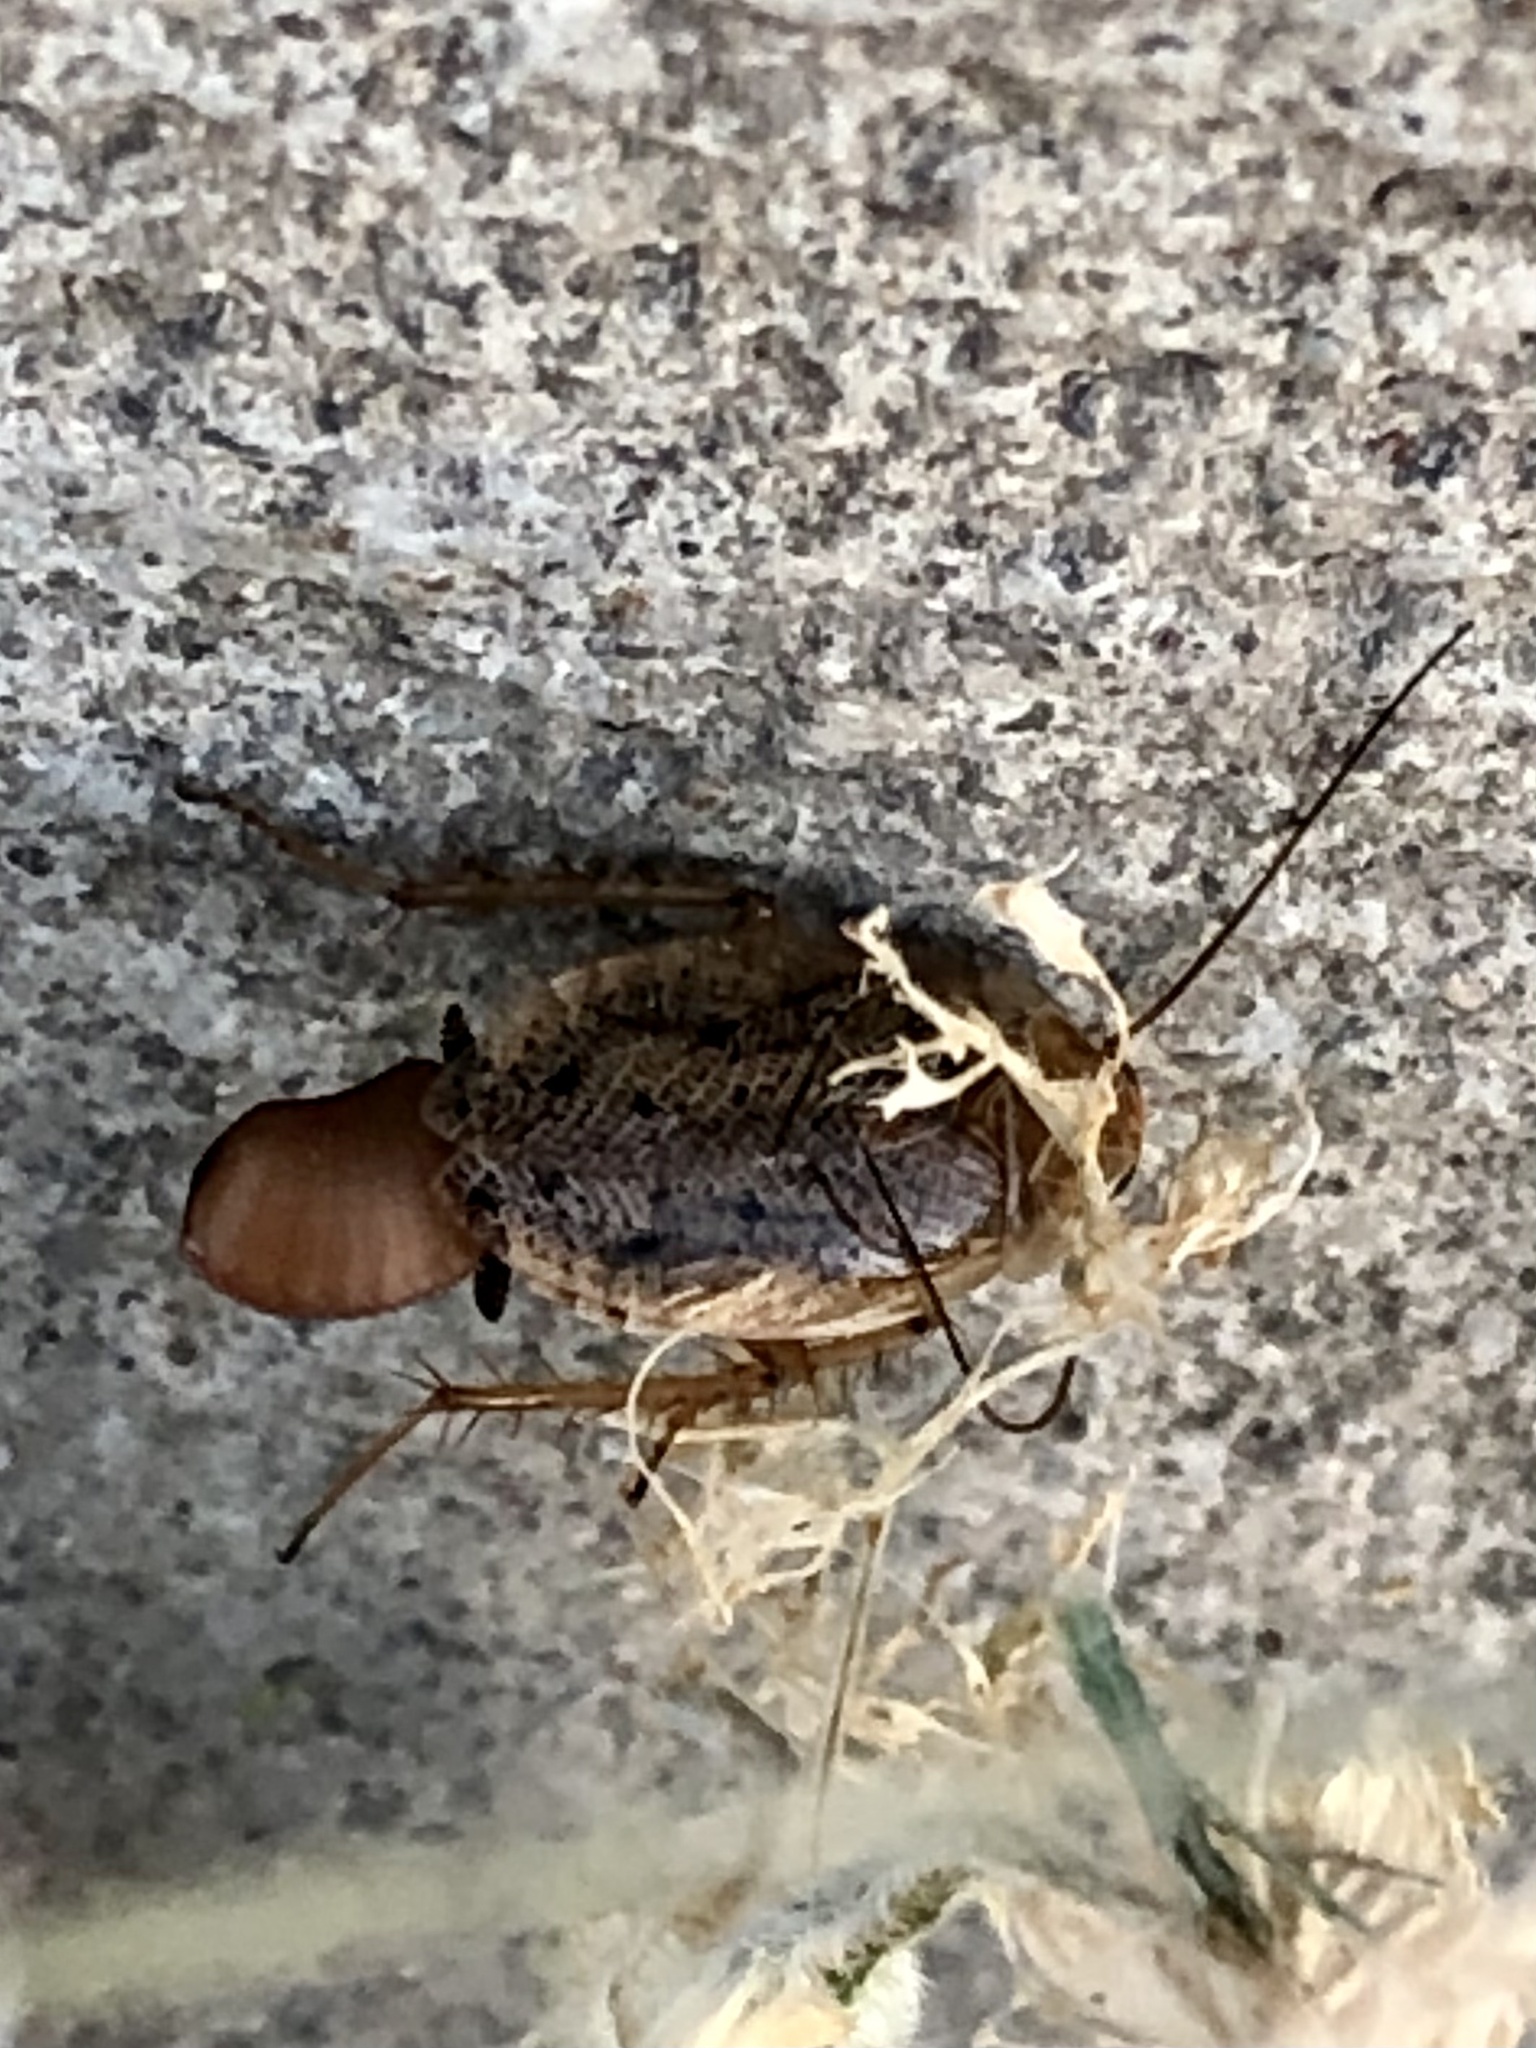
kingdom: Animalia
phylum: Arthropoda
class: Insecta
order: Blattodea
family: Ectobiidae
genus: Ectobius
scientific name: Ectobius lapponicus
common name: Dusky cockroach
